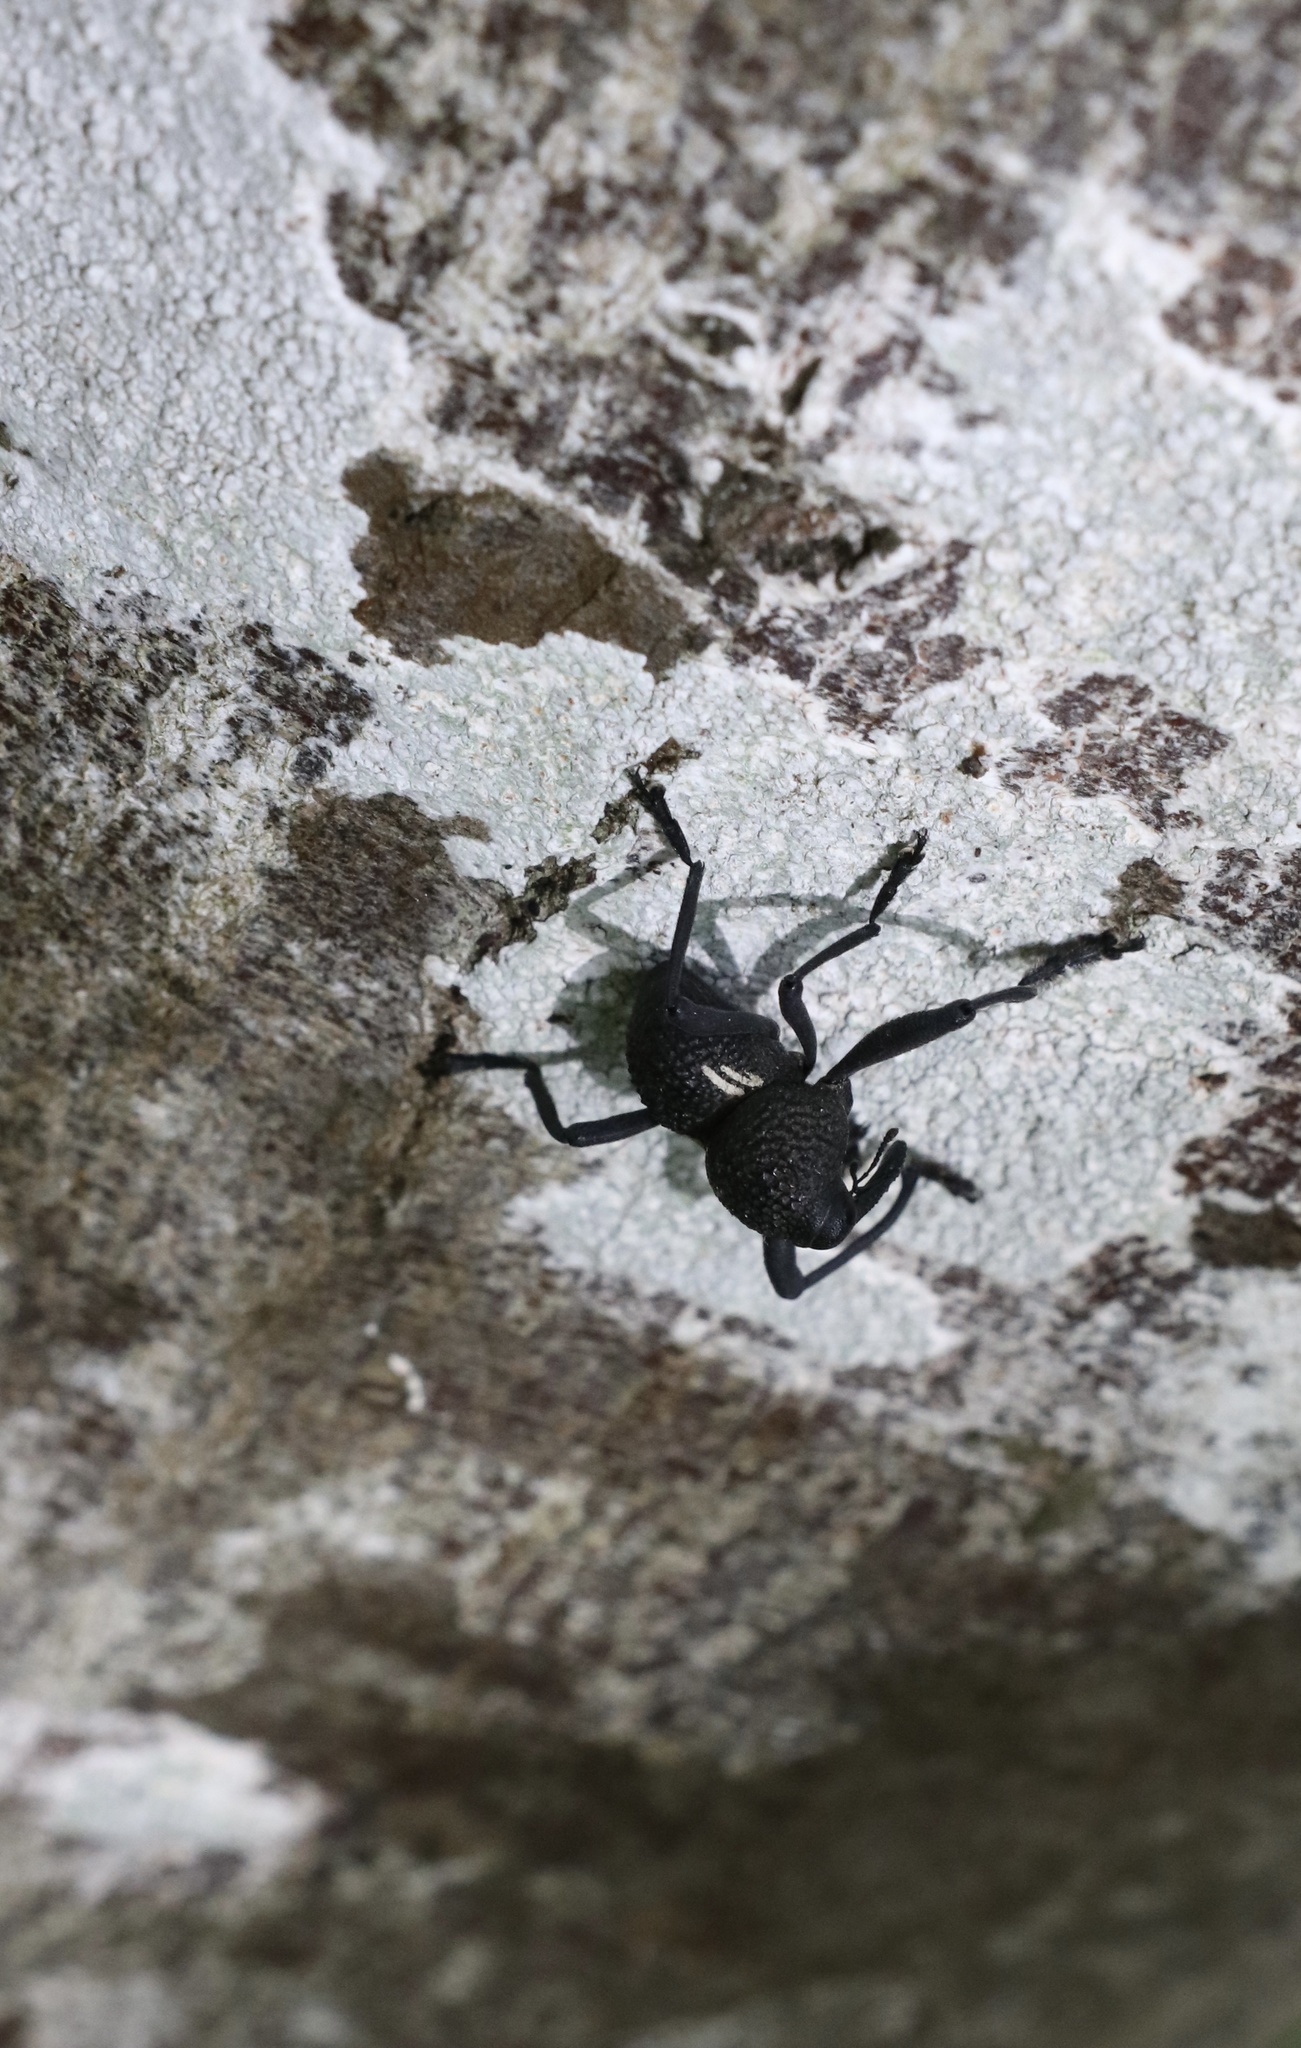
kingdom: Animalia
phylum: Arthropoda
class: Insecta
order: Coleoptera
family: Curculionidae
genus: Rhyephenes
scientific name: Rhyephenes humeralis
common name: Araè±ita chilena del pino
